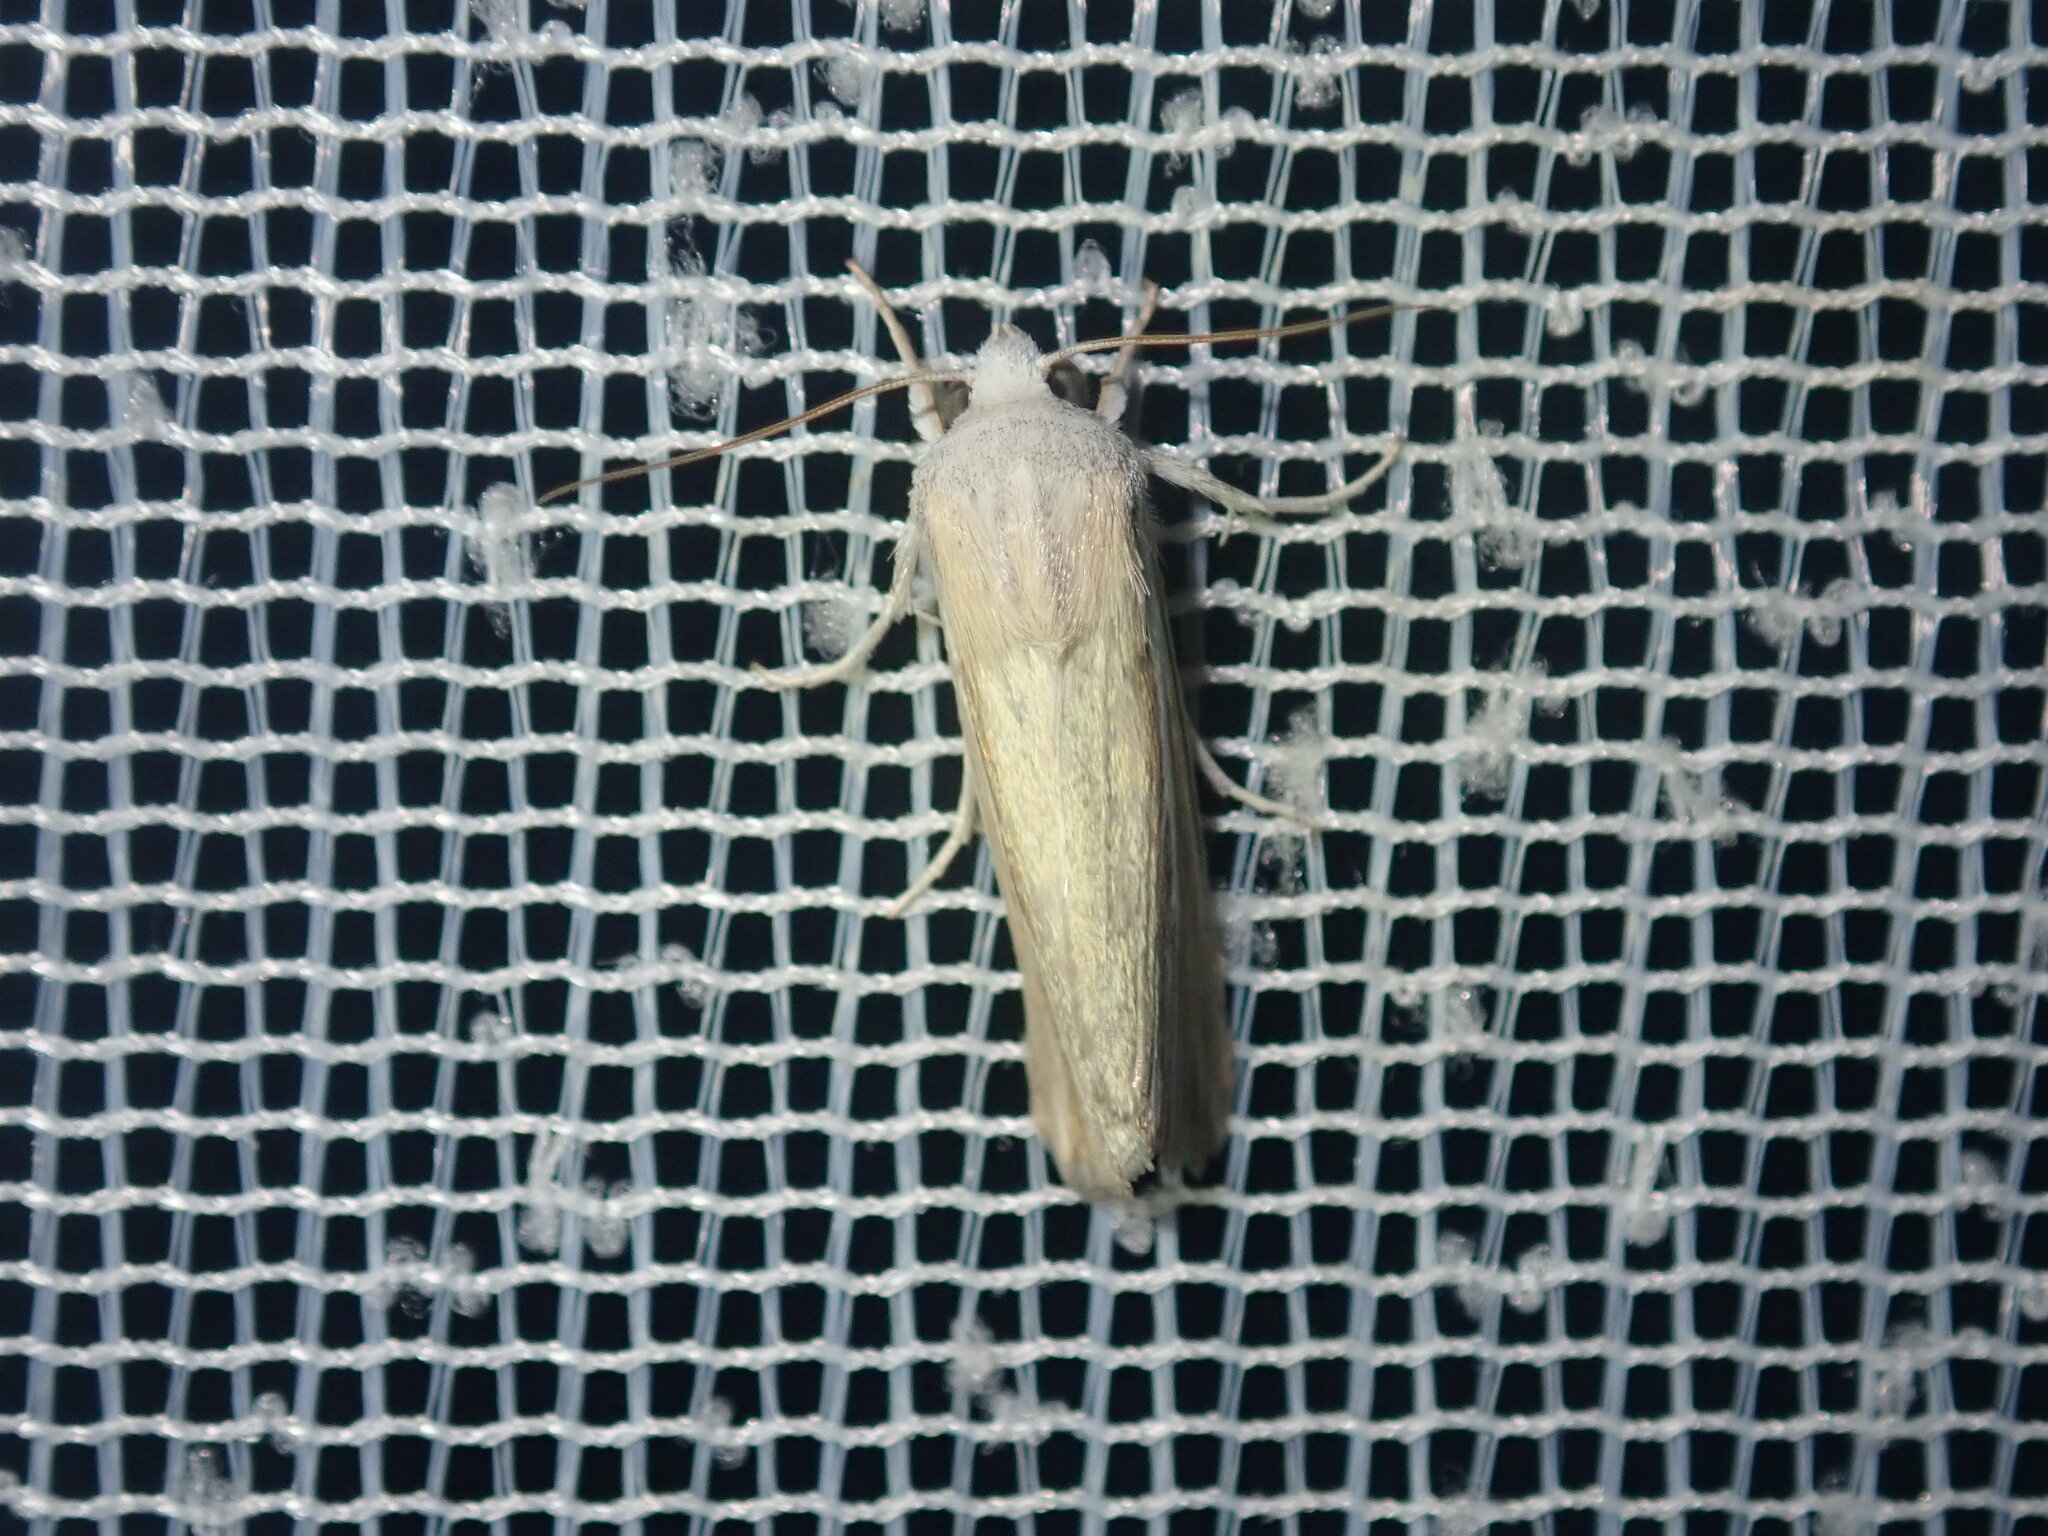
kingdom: Animalia
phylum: Arthropoda
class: Insecta
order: Lepidoptera
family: Noctuidae
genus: Leucania
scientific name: Leucania cruegeri
